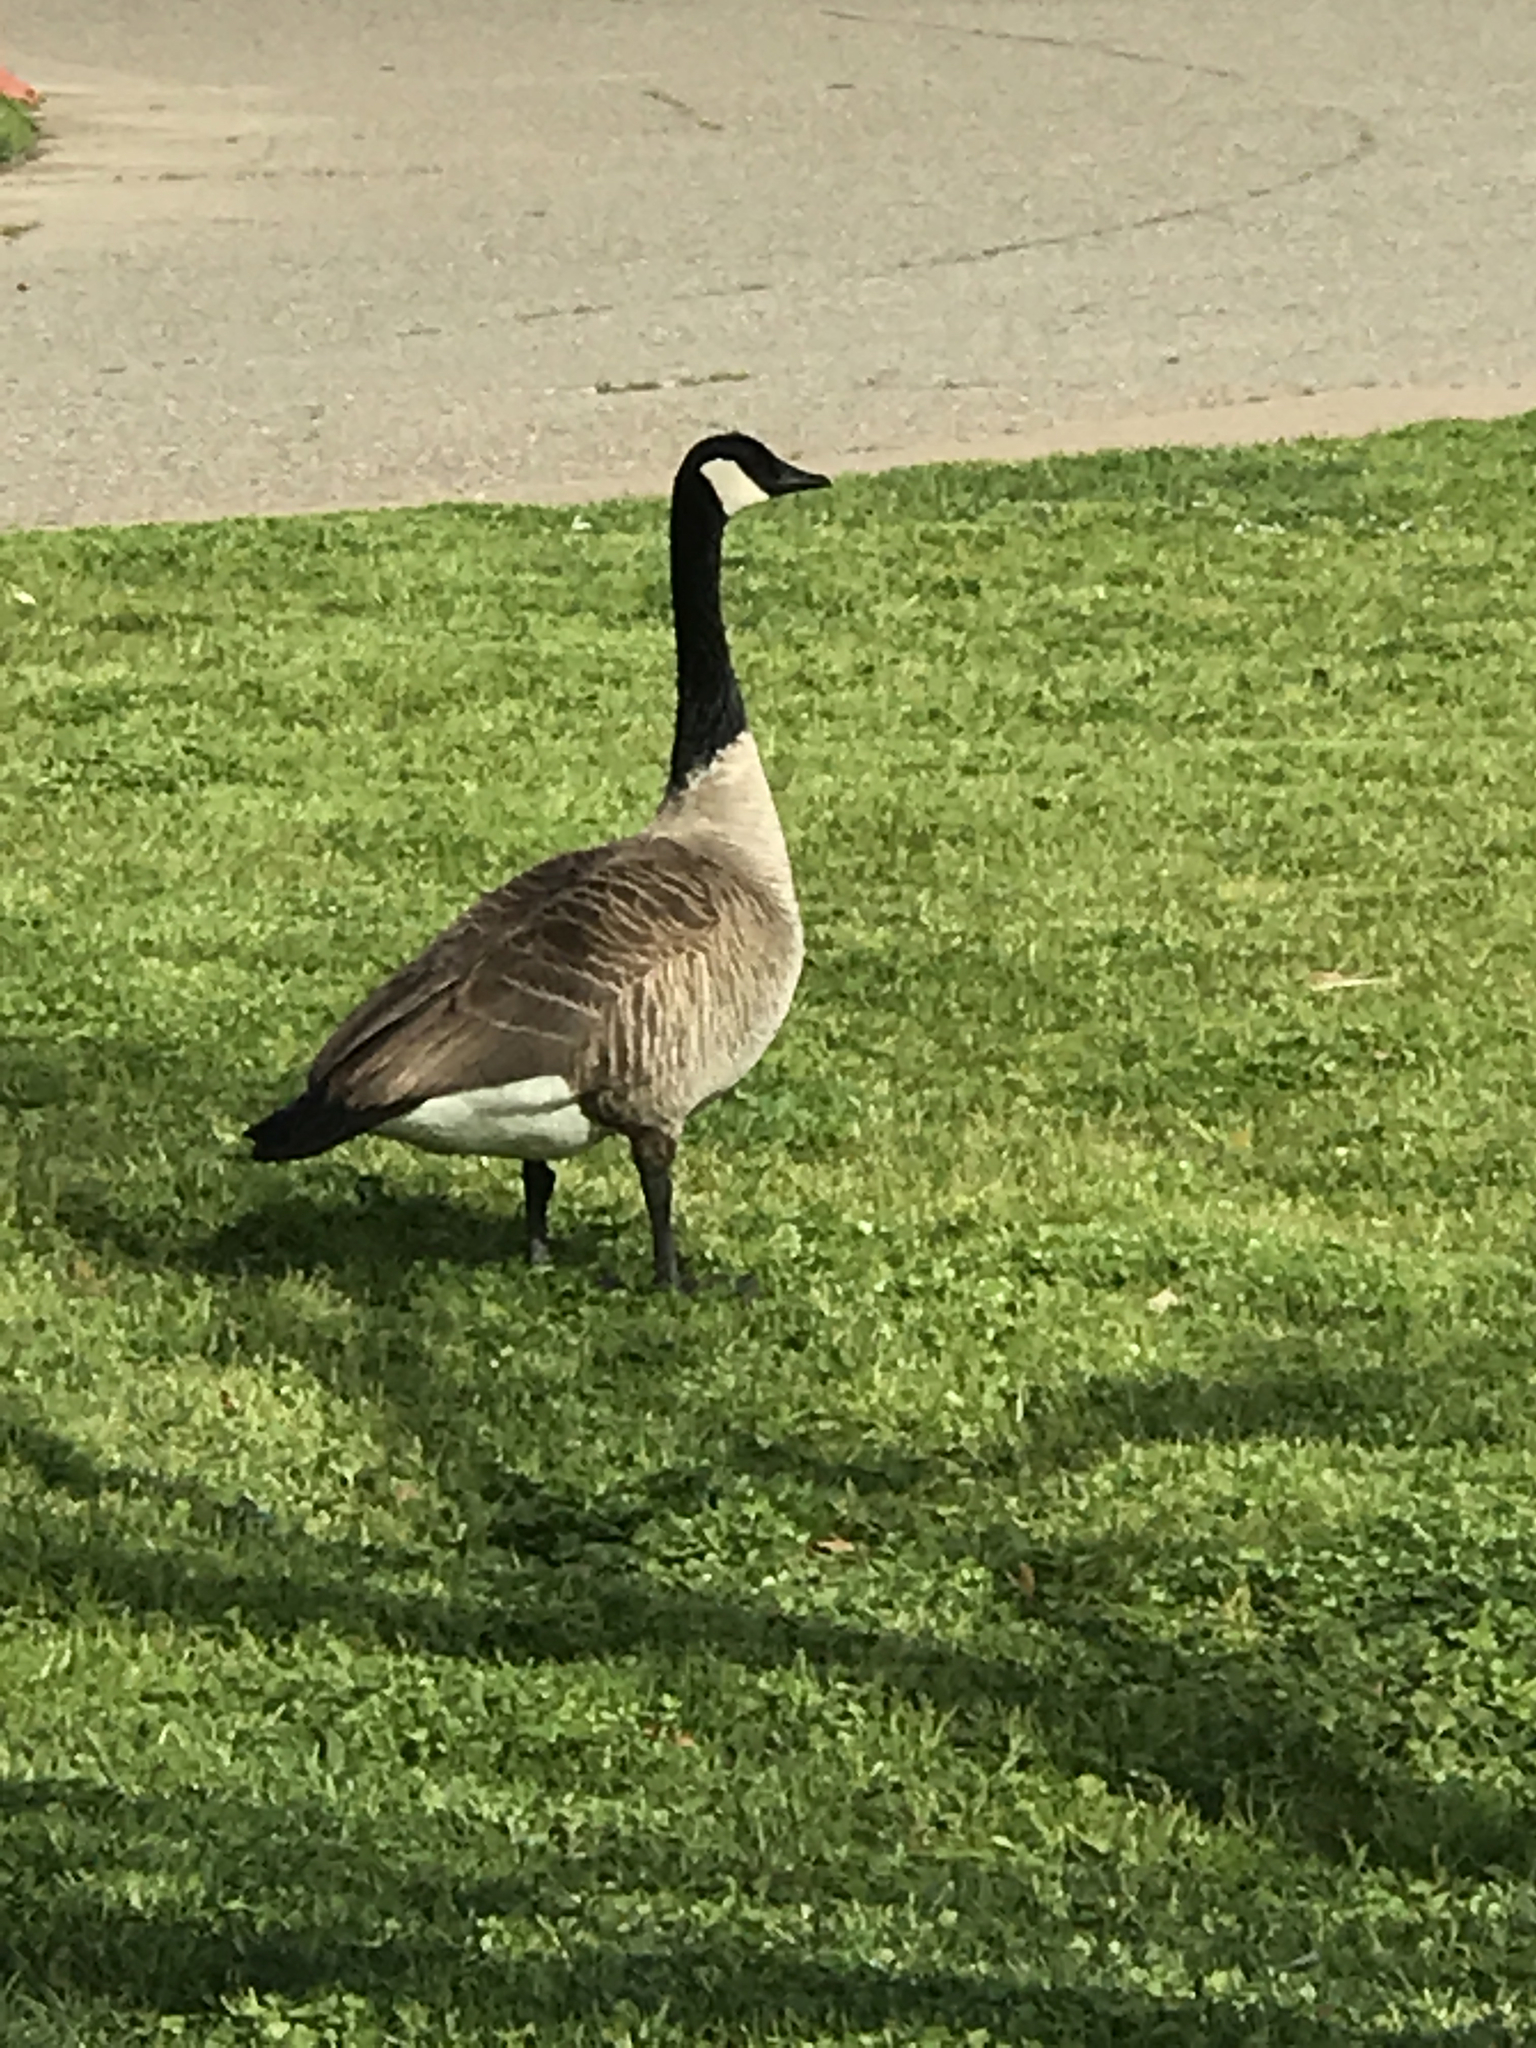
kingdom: Animalia
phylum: Chordata
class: Aves
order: Anseriformes
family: Anatidae
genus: Branta
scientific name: Branta canadensis
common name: Canada goose
